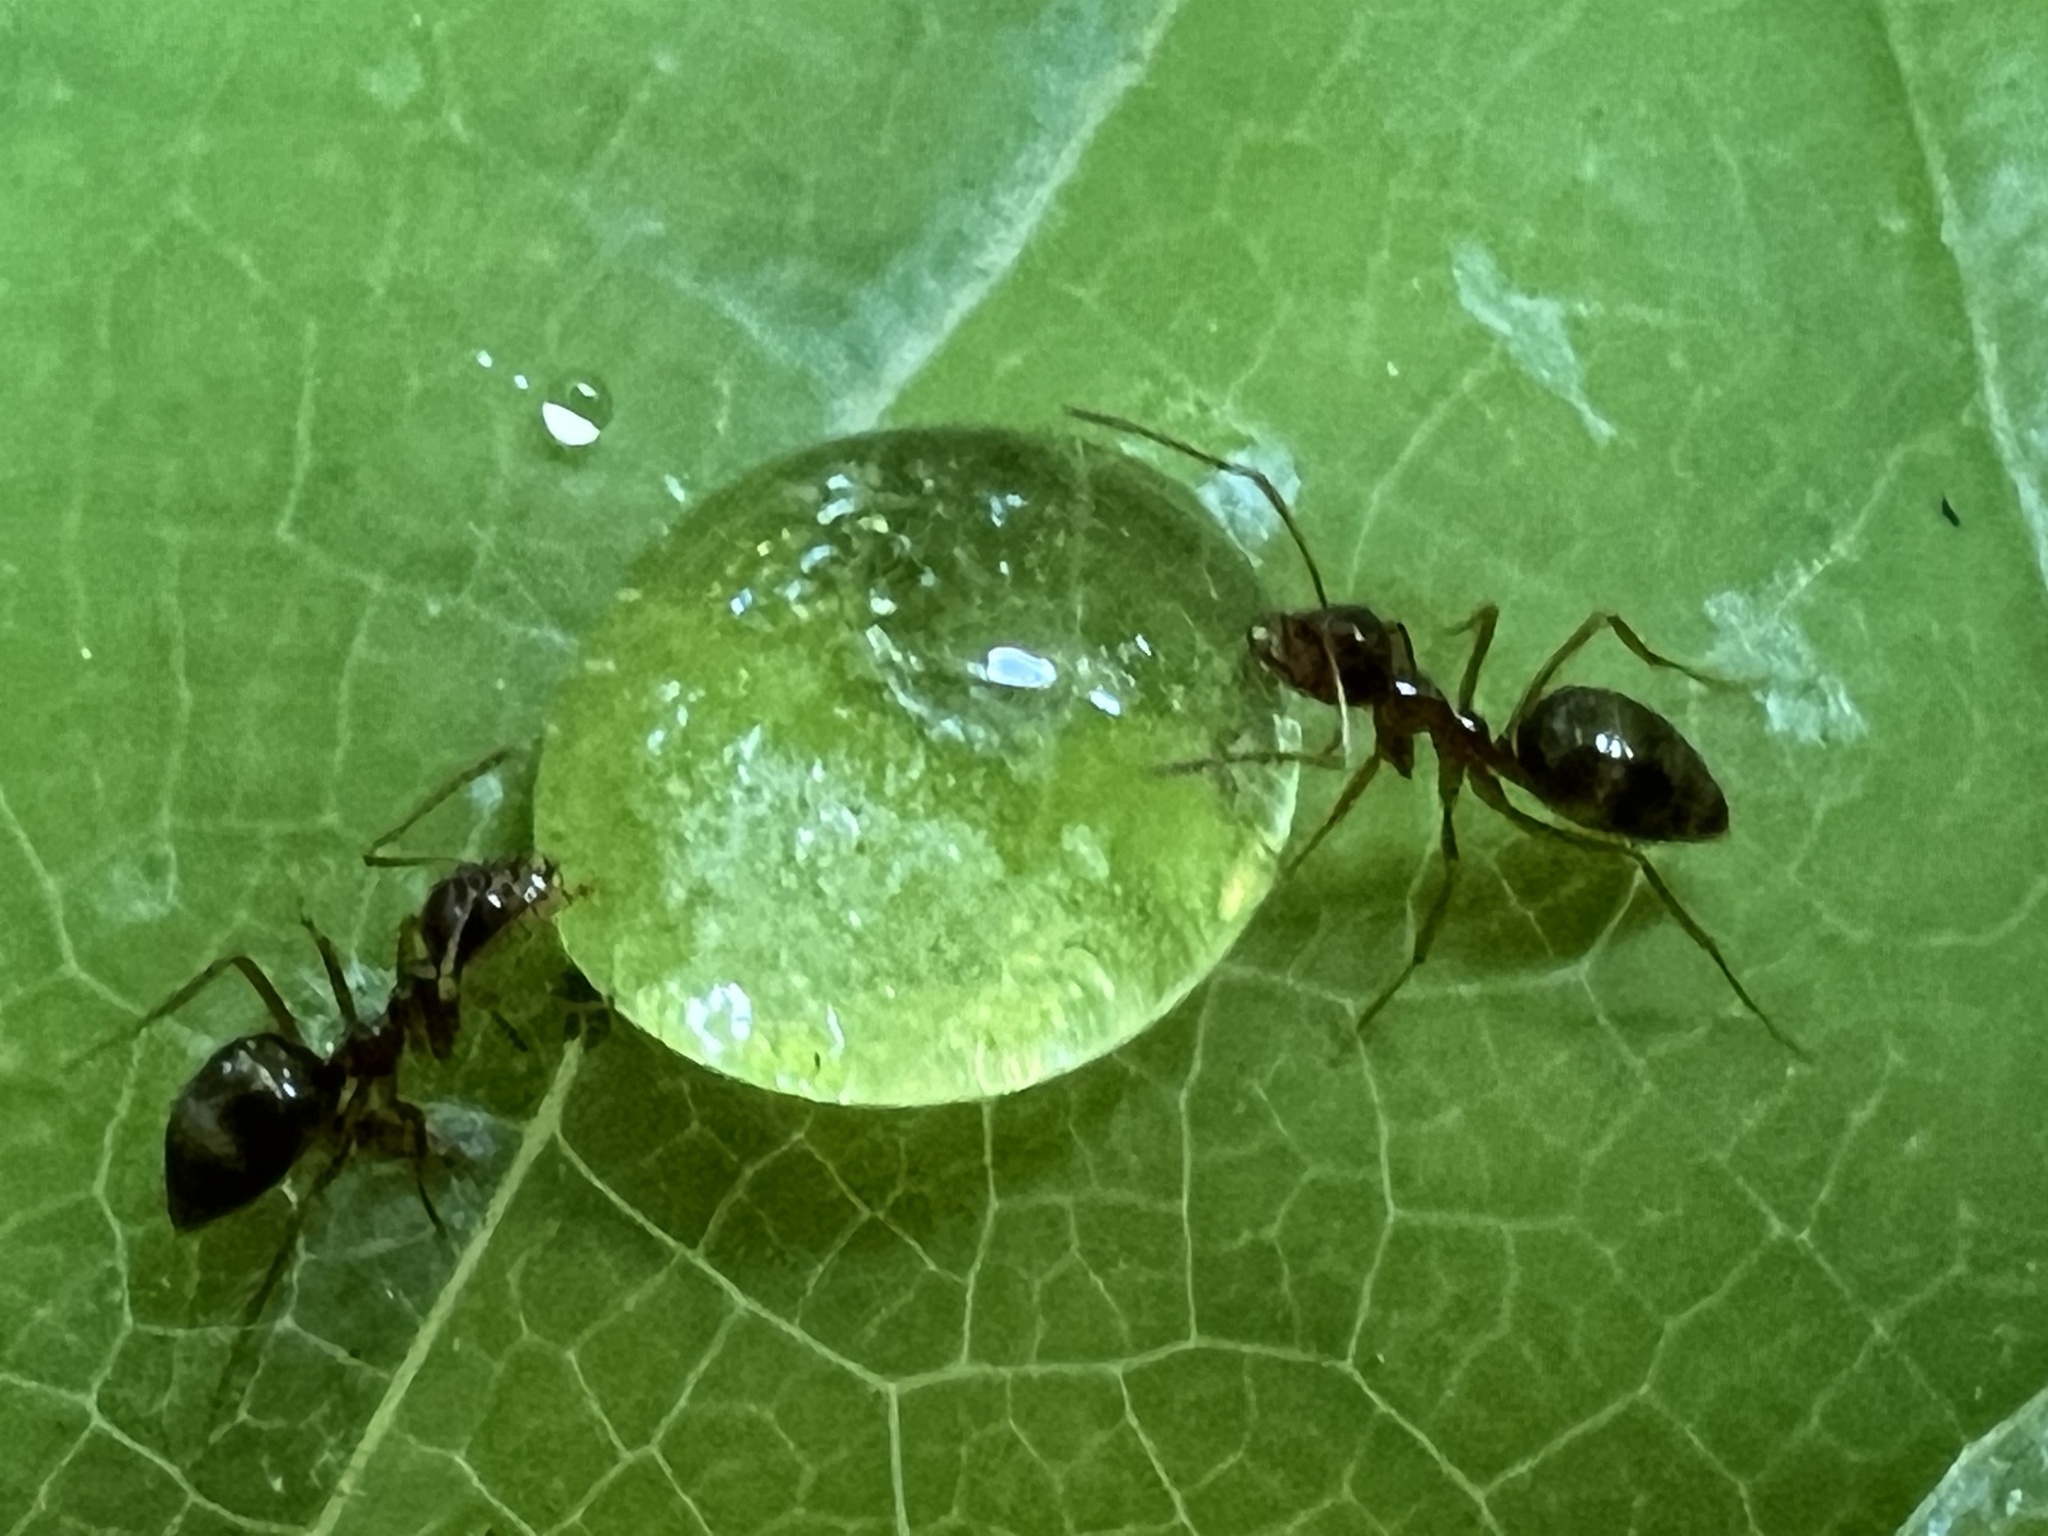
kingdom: Animalia
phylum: Arthropoda
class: Insecta
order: Hymenoptera
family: Formicidae
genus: Prenolepis
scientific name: Prenolepis imparis
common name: Small honey ant
